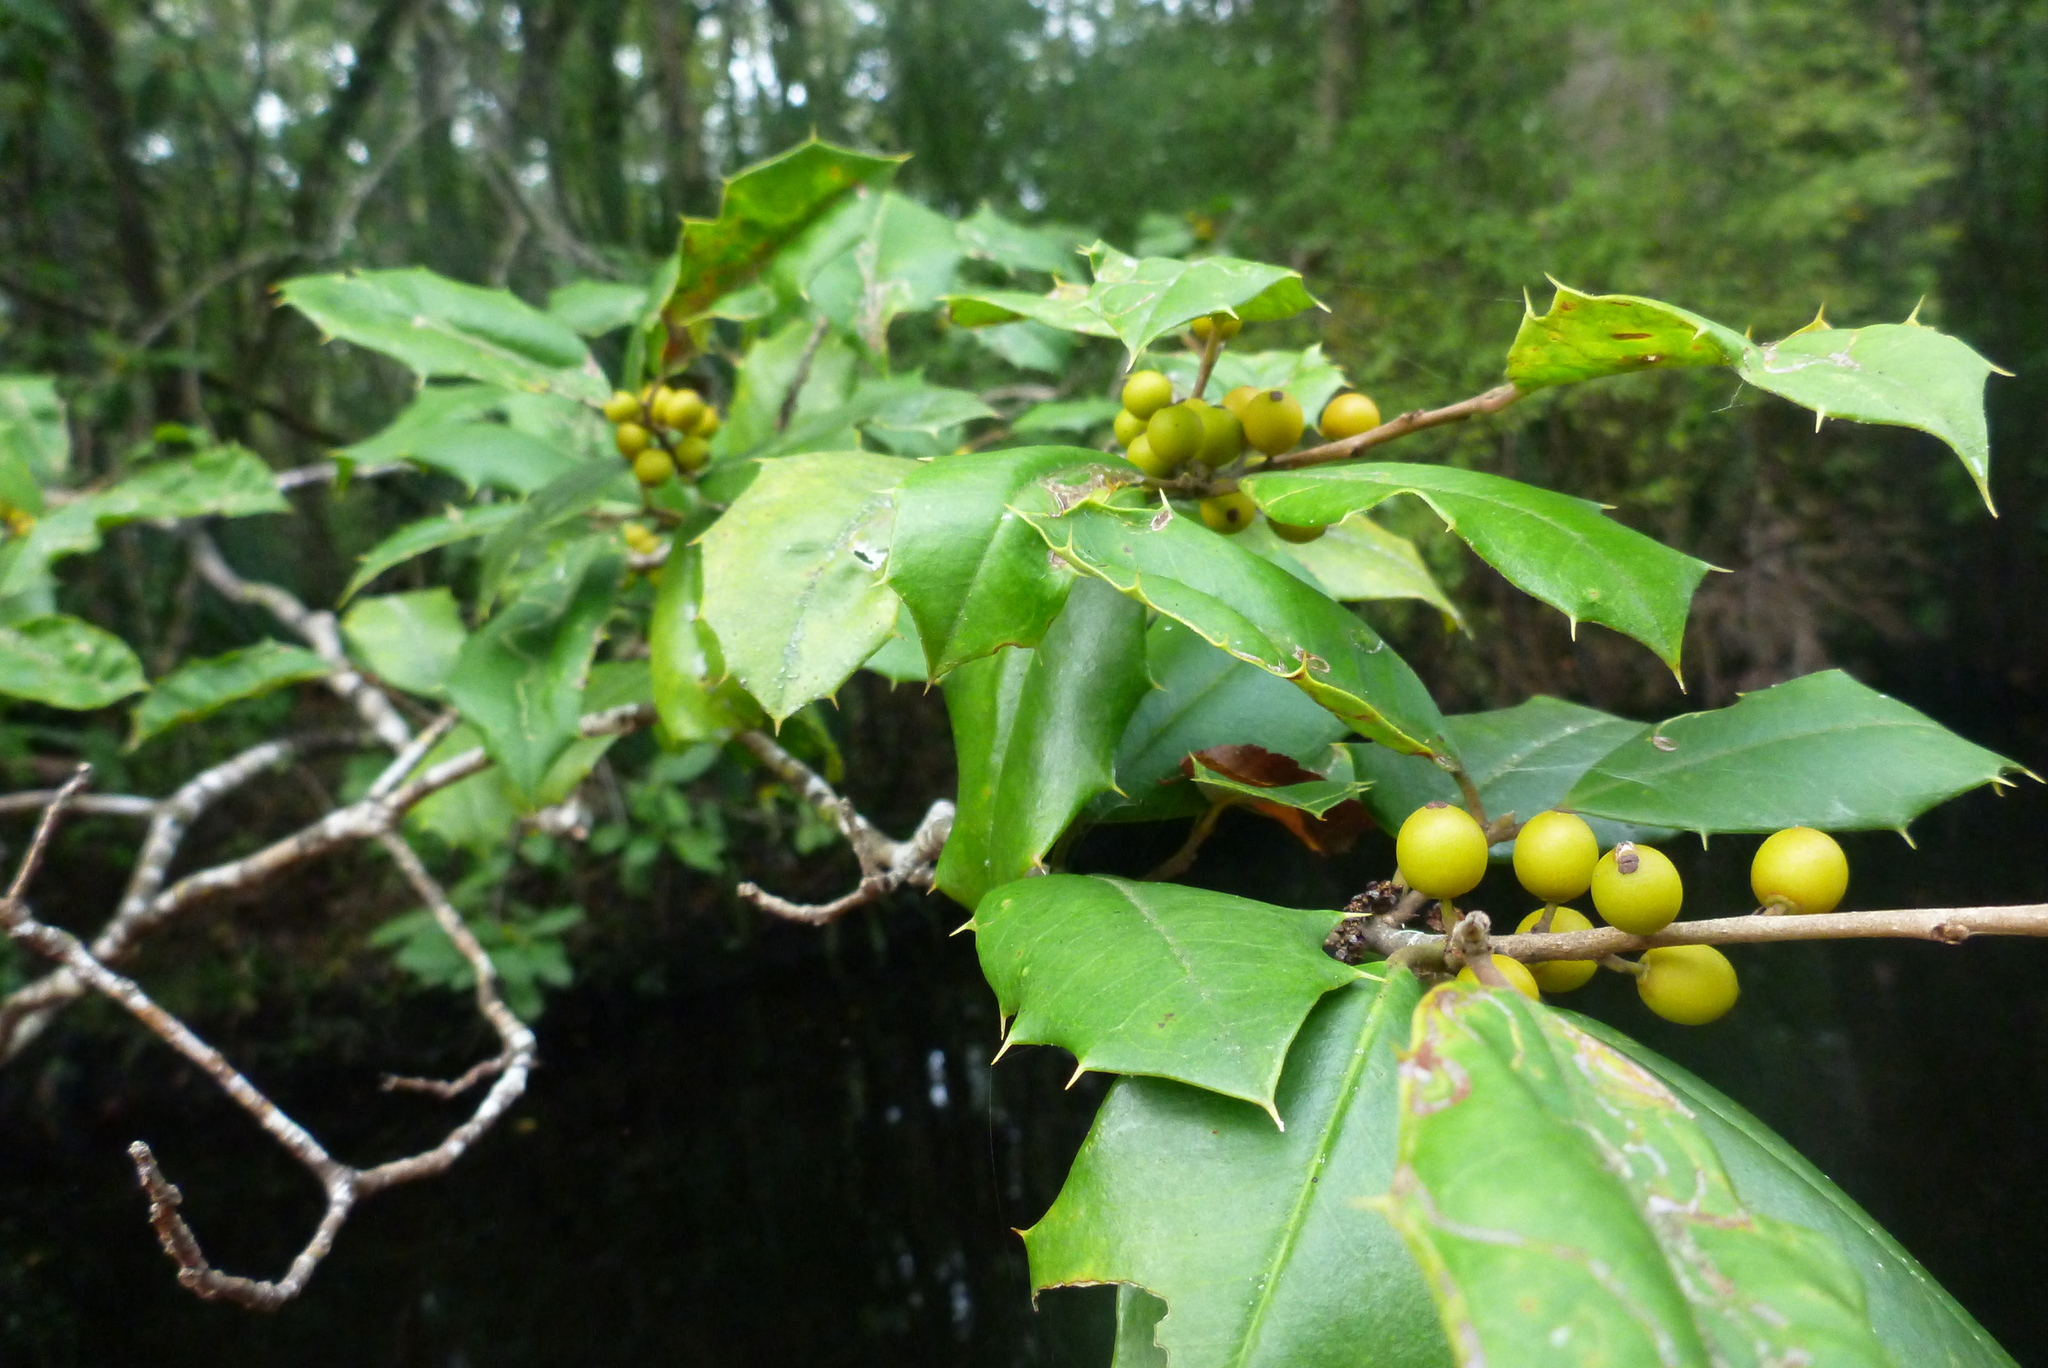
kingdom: Plantae
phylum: Tracheophyta
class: Magnoliopsida
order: Aquifoliales
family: Aquifoliaceae
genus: Ilex
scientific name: Ilex opaca
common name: American holly
